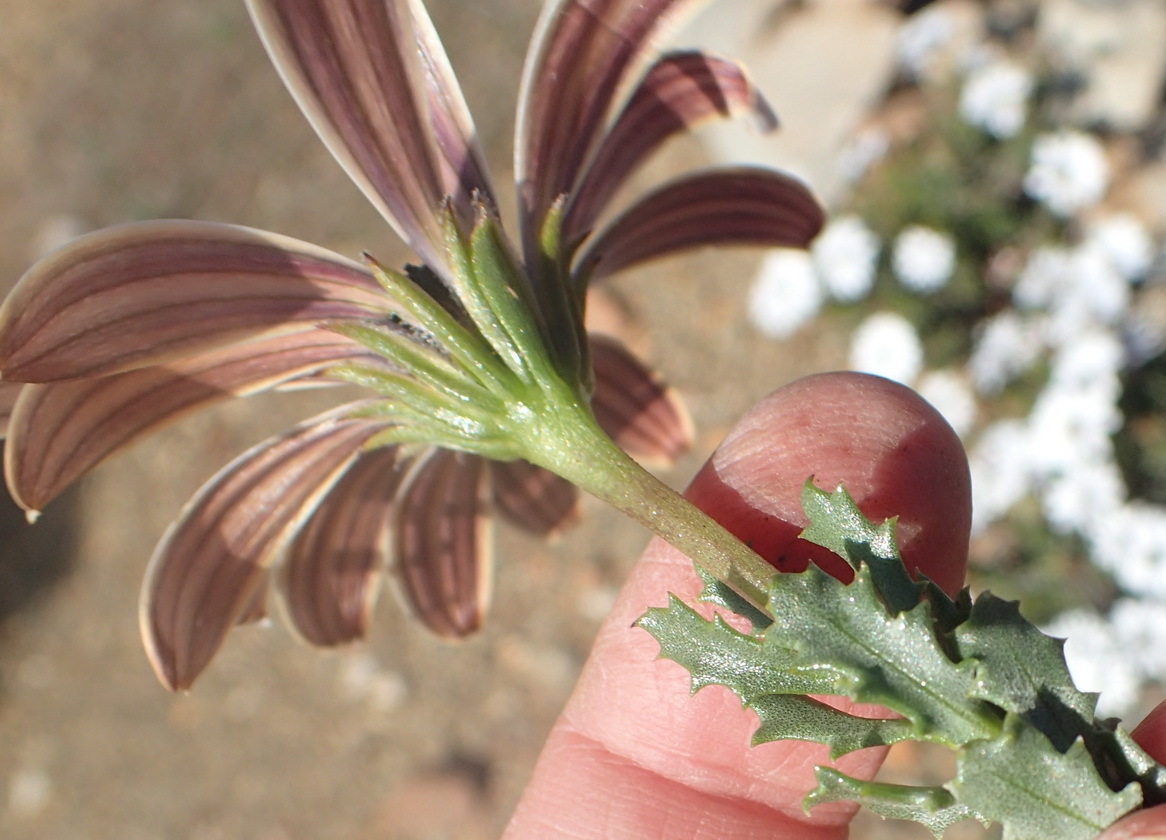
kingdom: Plantae
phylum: Tracheophyta
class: Magnoliopsida
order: Asterales
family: Asteraceae
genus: Dimorphotheca
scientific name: Dimorphotheca cuneata
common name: Daisy
